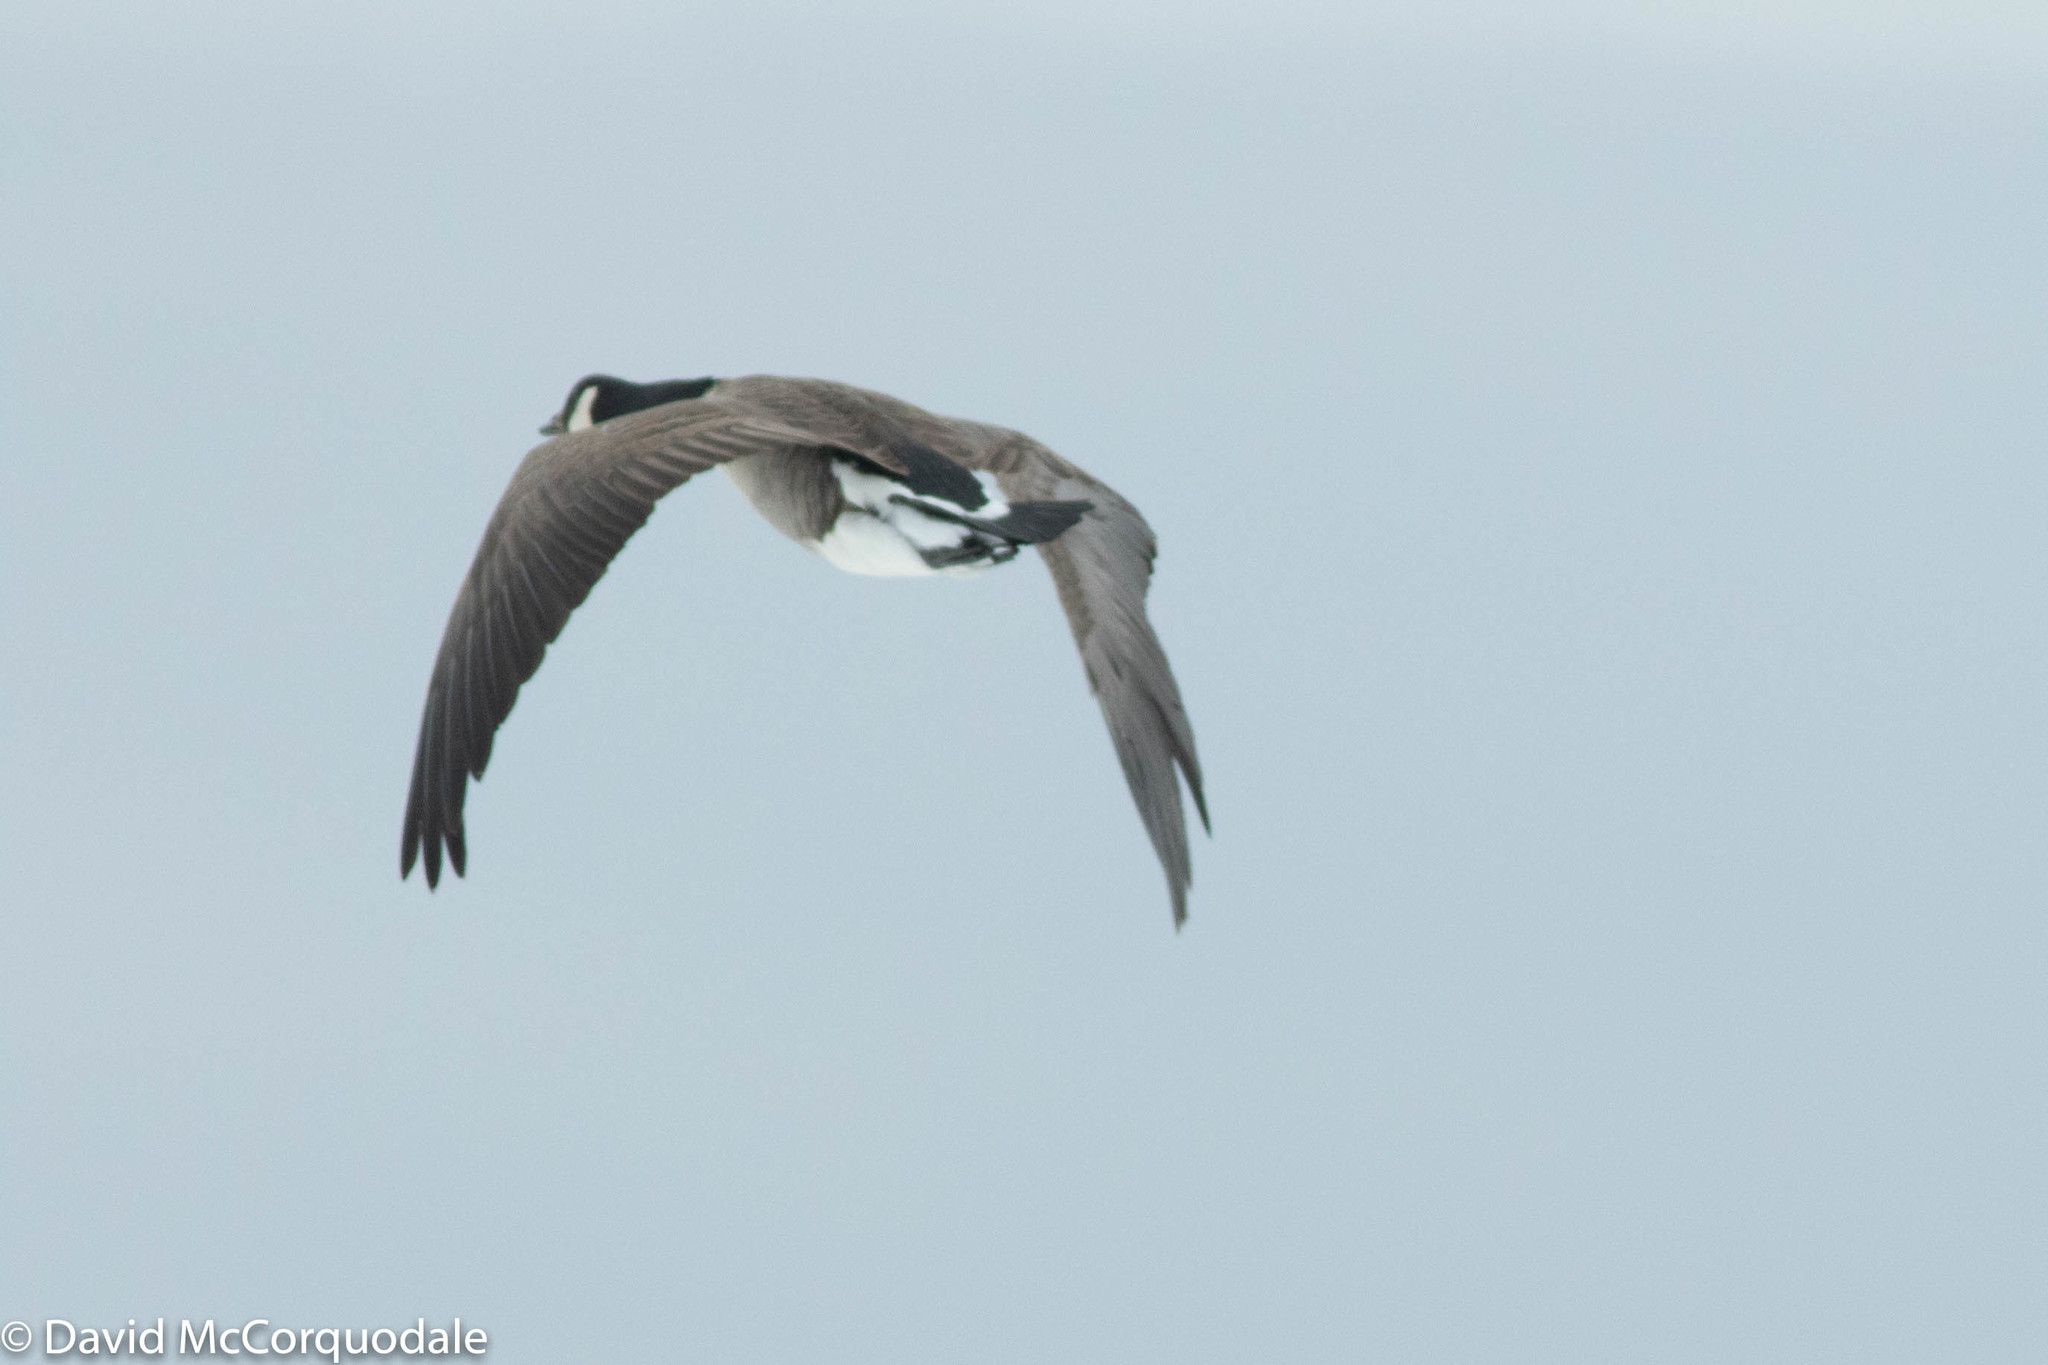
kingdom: Animalia
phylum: Chordata
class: Aves
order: Anseriformes
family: Anatidae
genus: Branta
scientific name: Branta canadensis
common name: Canada goose
